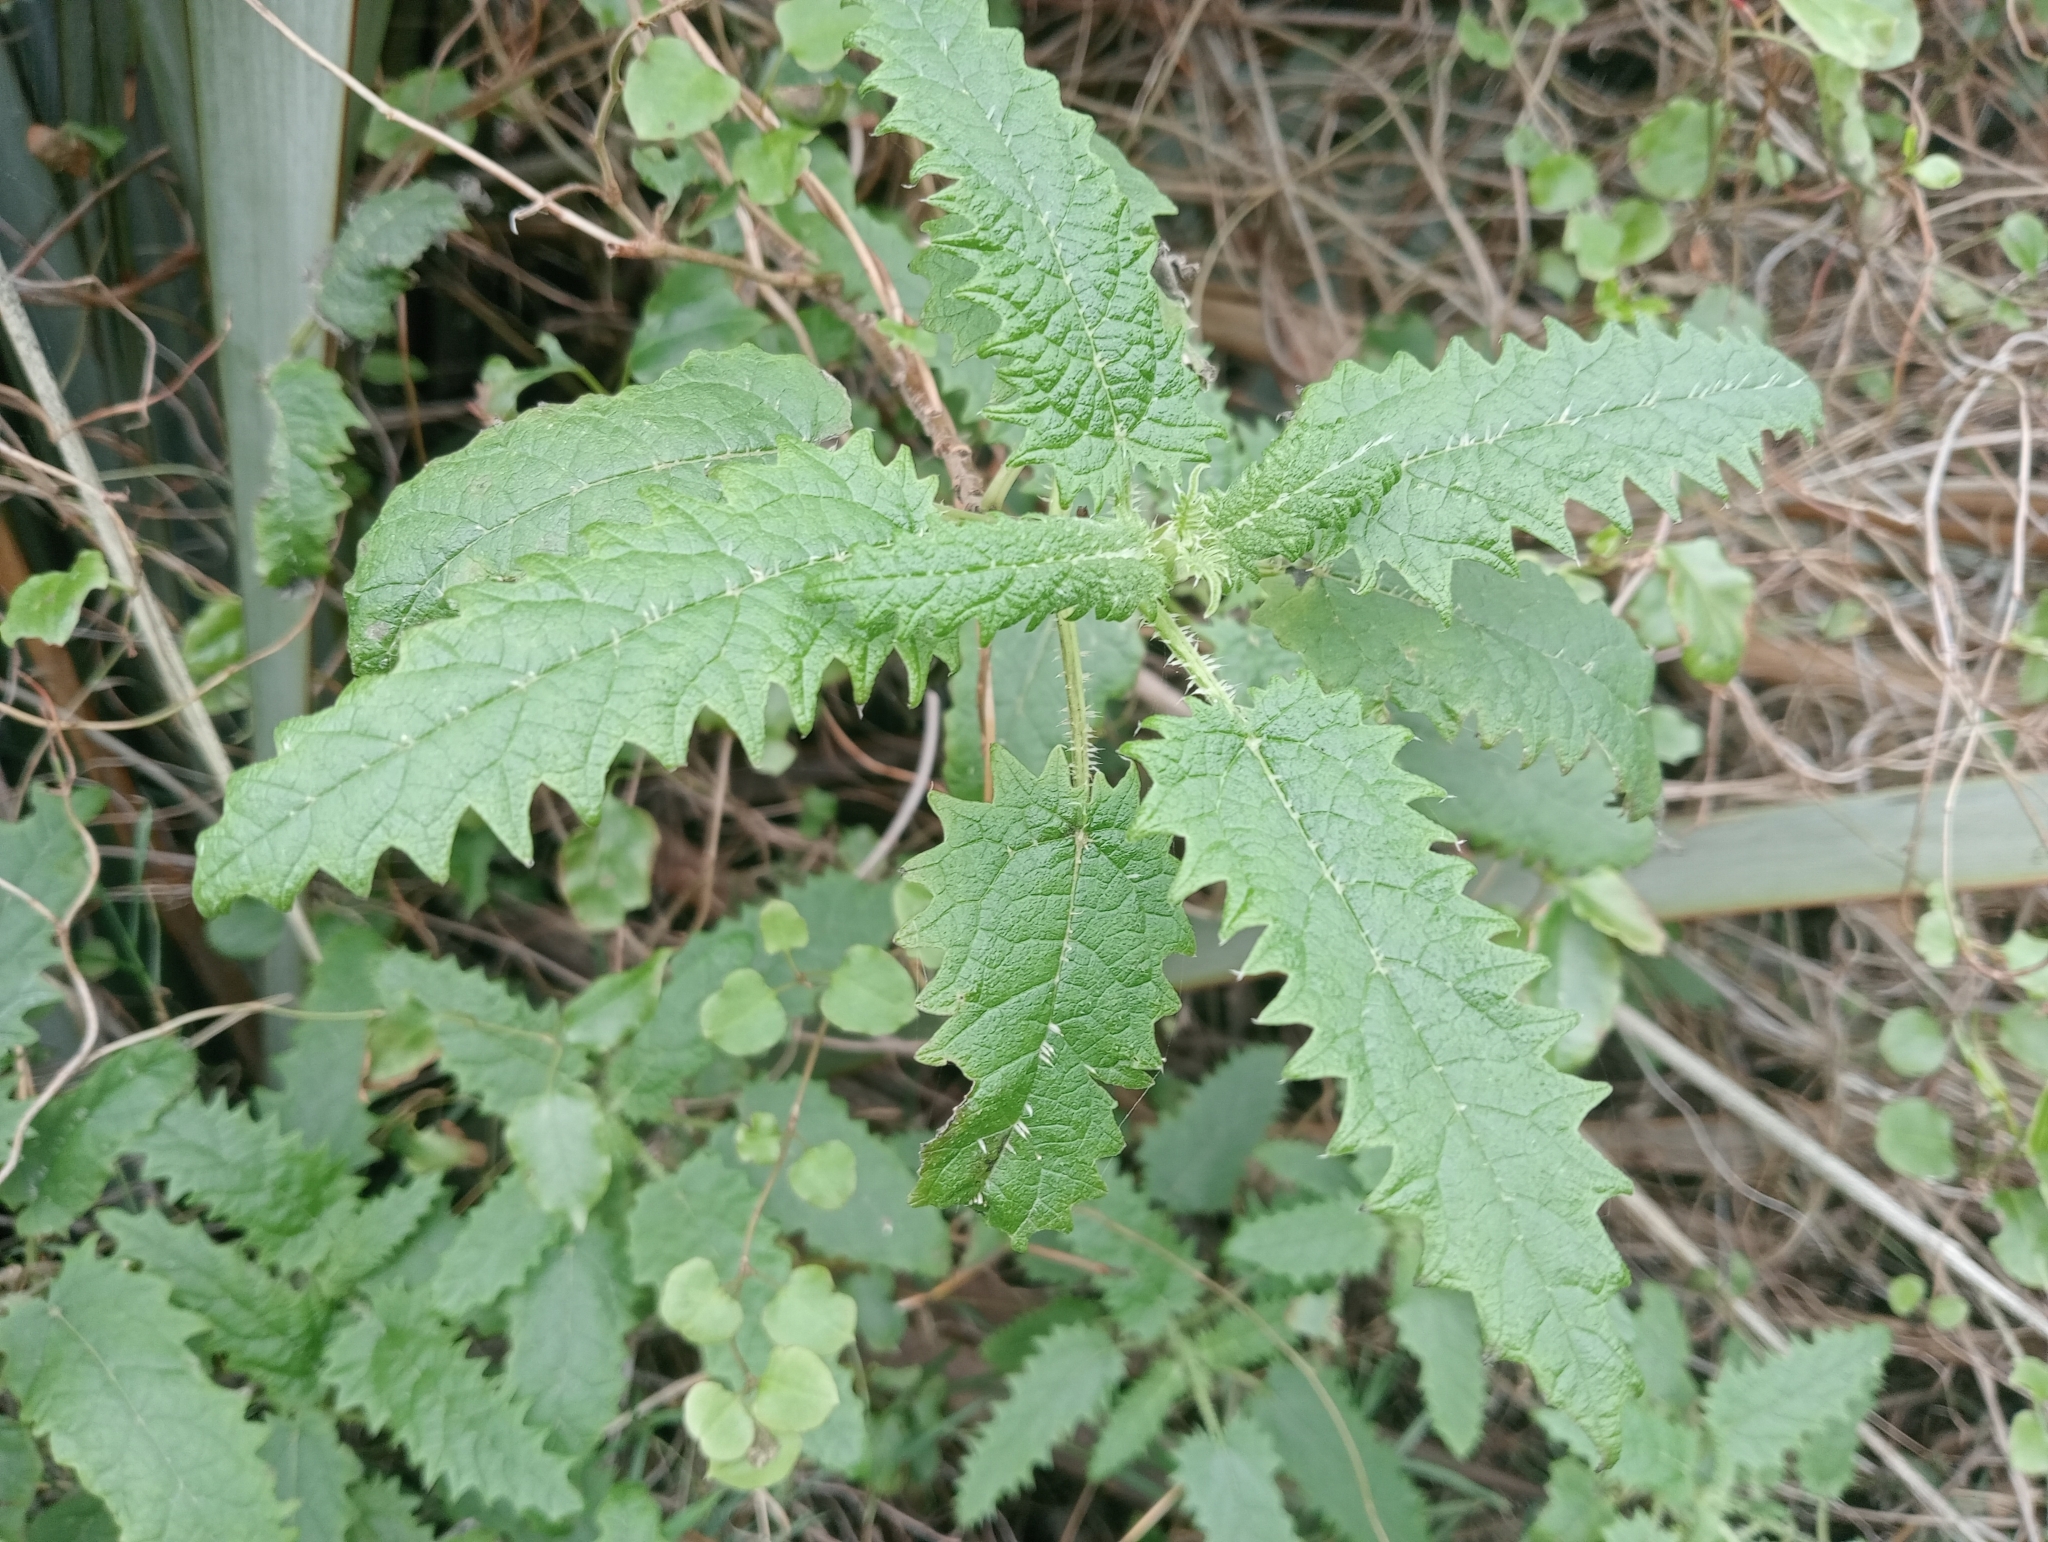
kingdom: Plantae
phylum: Tracheophyta
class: Magnoliopsida
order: Rosales
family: Urticaceae
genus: Urtica
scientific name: Urtica ferox
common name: Tree nettle
